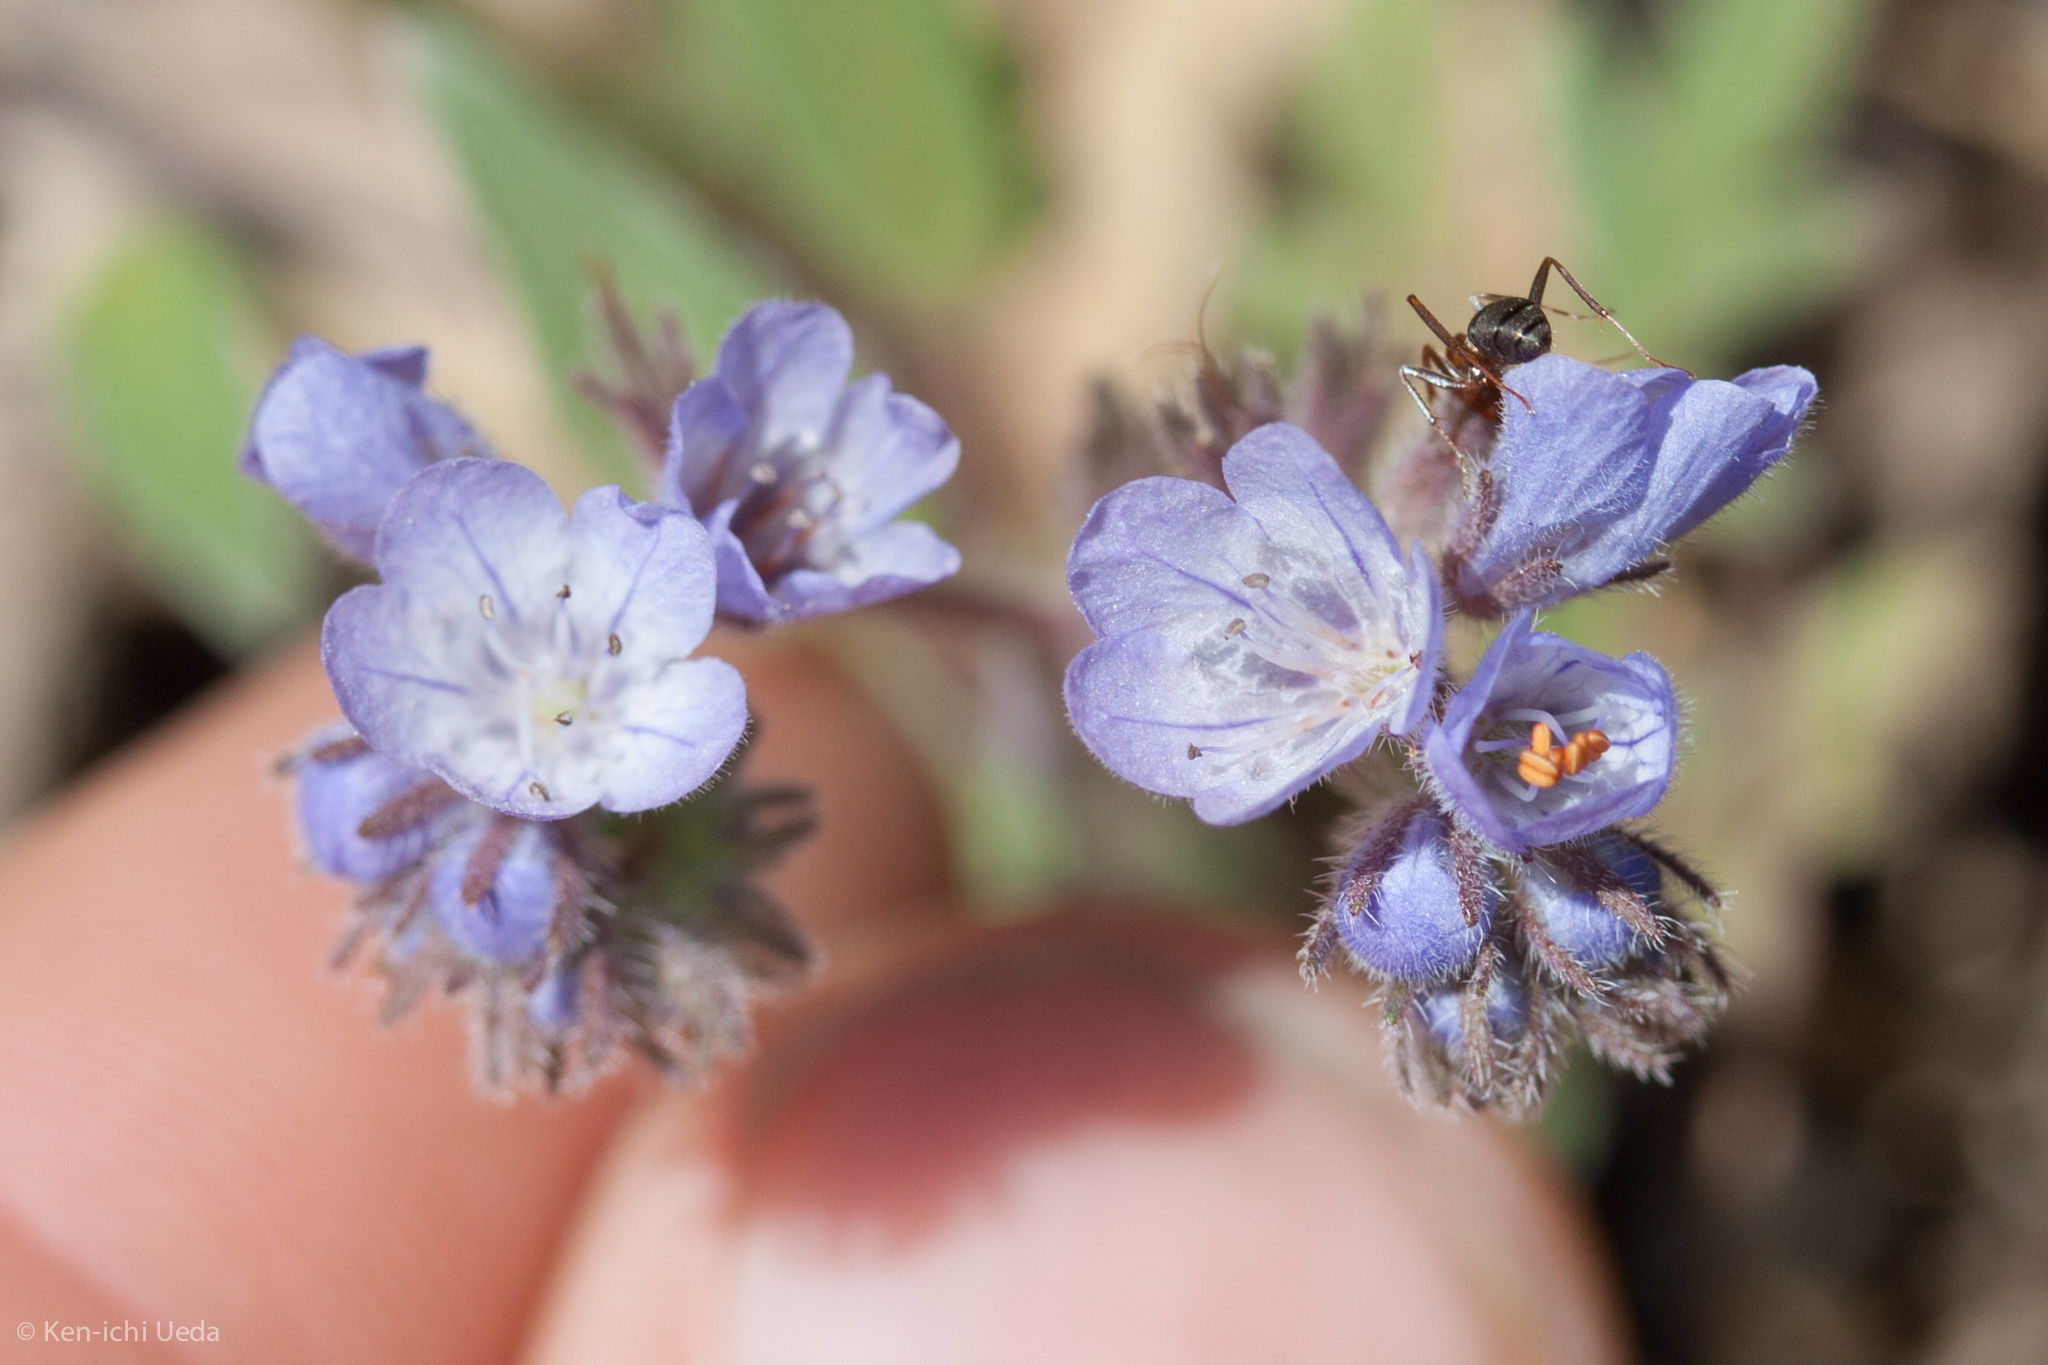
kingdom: Plantae
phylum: Tracheophyta
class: Magnoliopsida
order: Boraginales
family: Hydrophyllaceae
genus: Phacelia
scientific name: Phacelia breweri
